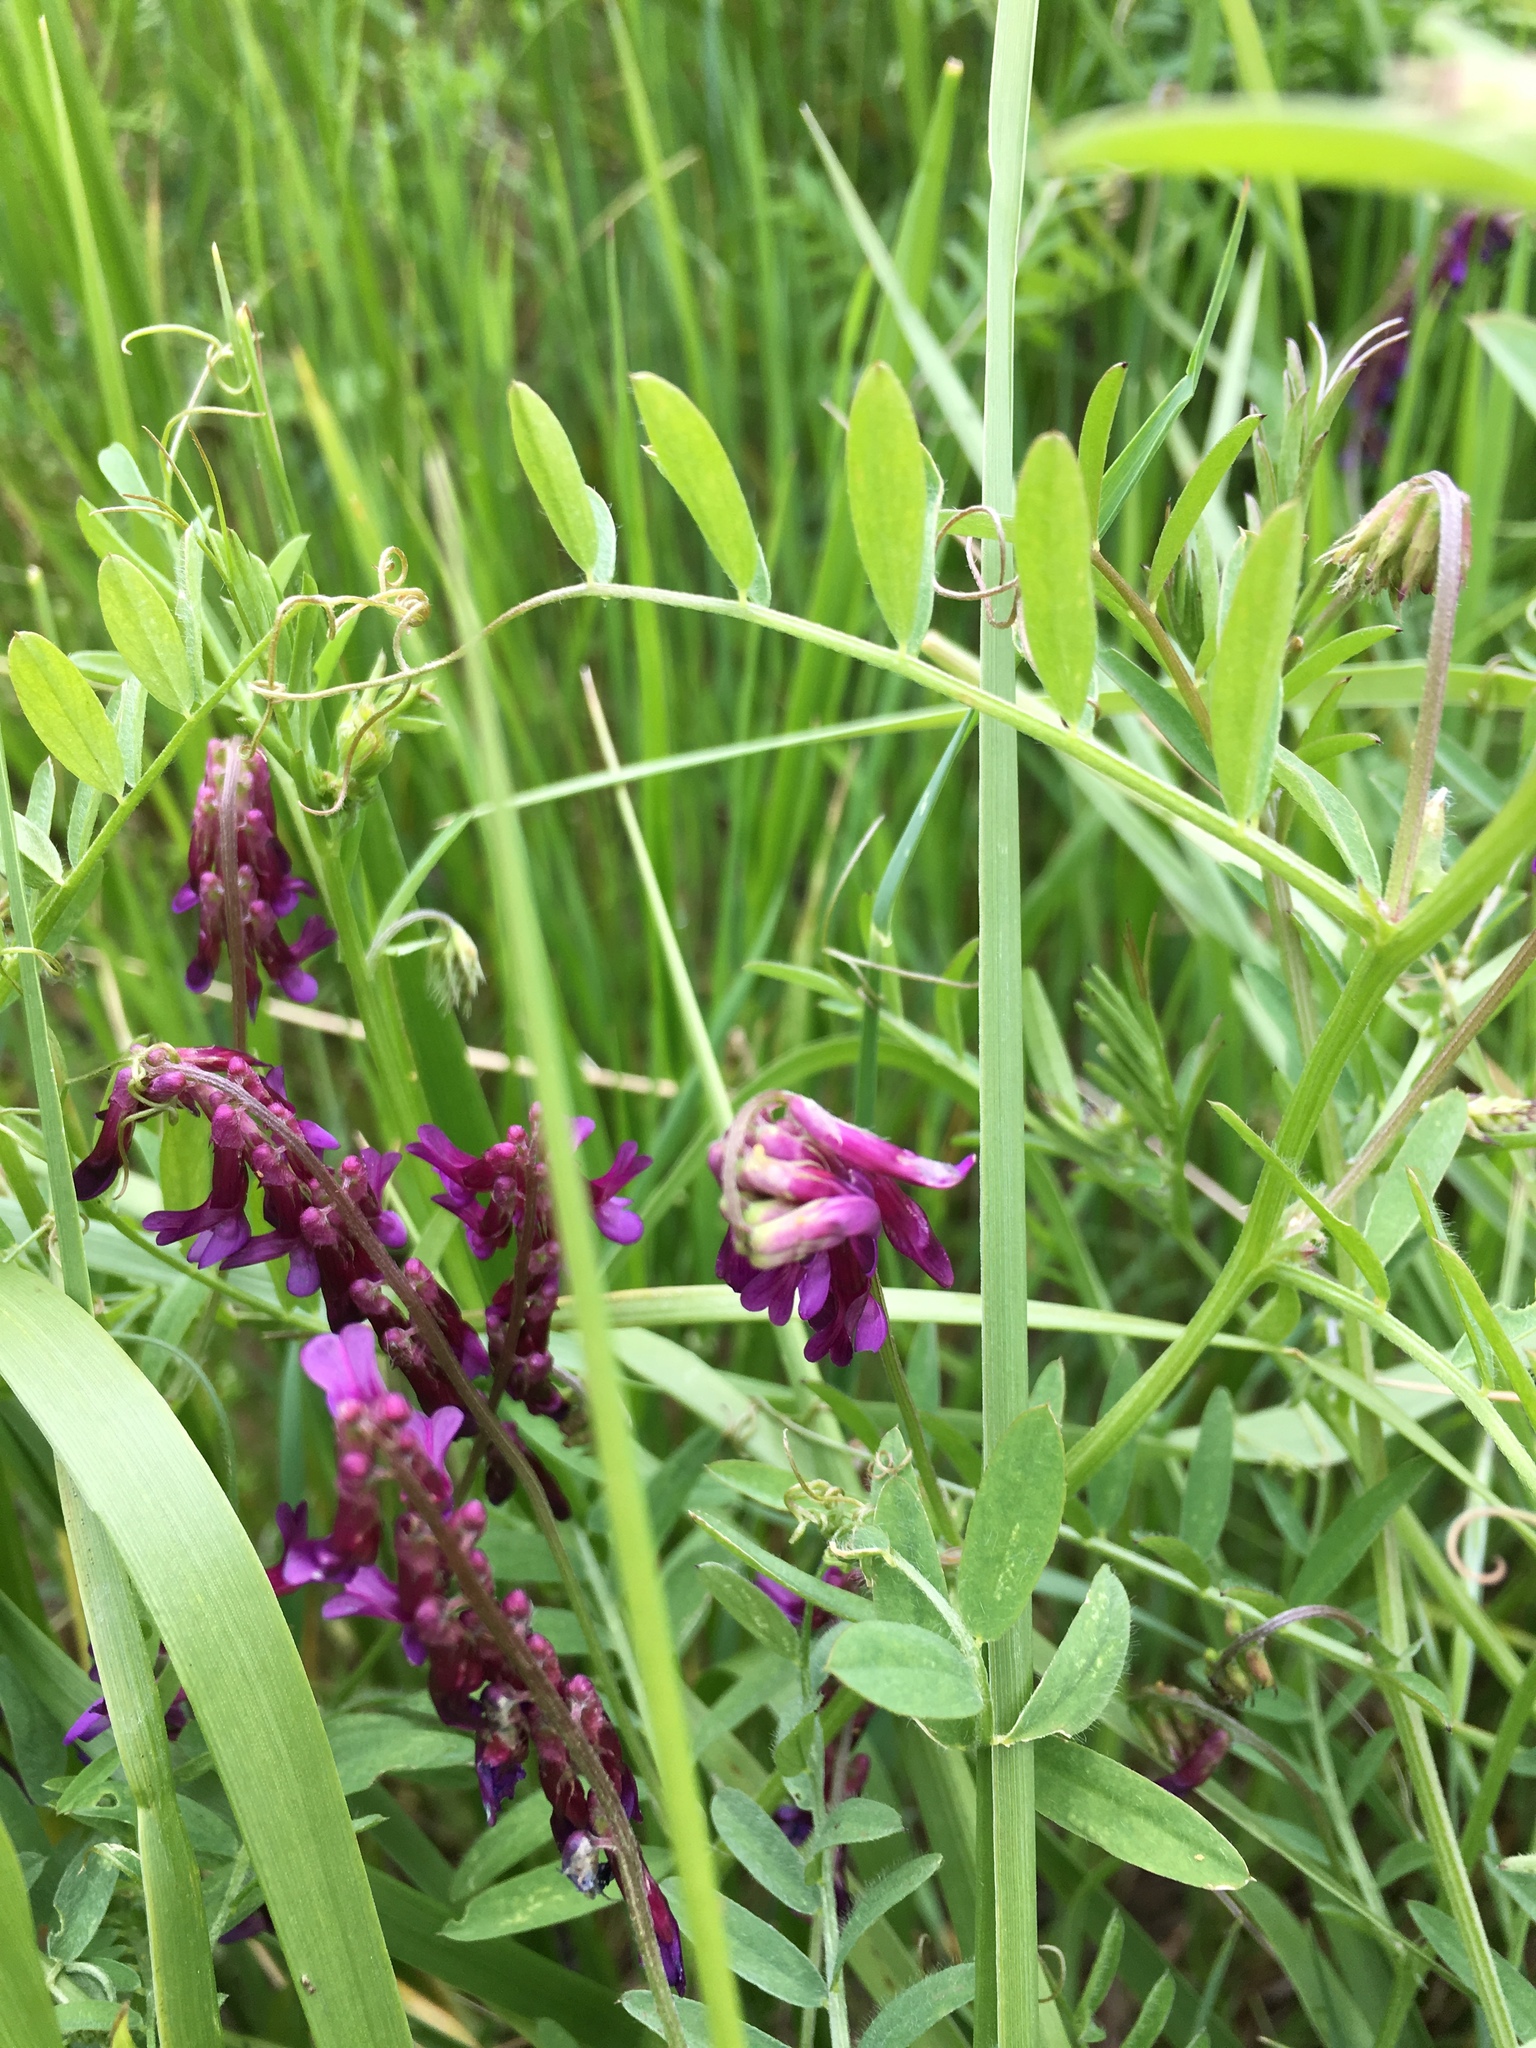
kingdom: Plantae
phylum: Tracheophyta
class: Magnoliopsida
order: Fabales
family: Fabaceae
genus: Vicia
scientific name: Vicia villosa
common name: Fodder vetch
